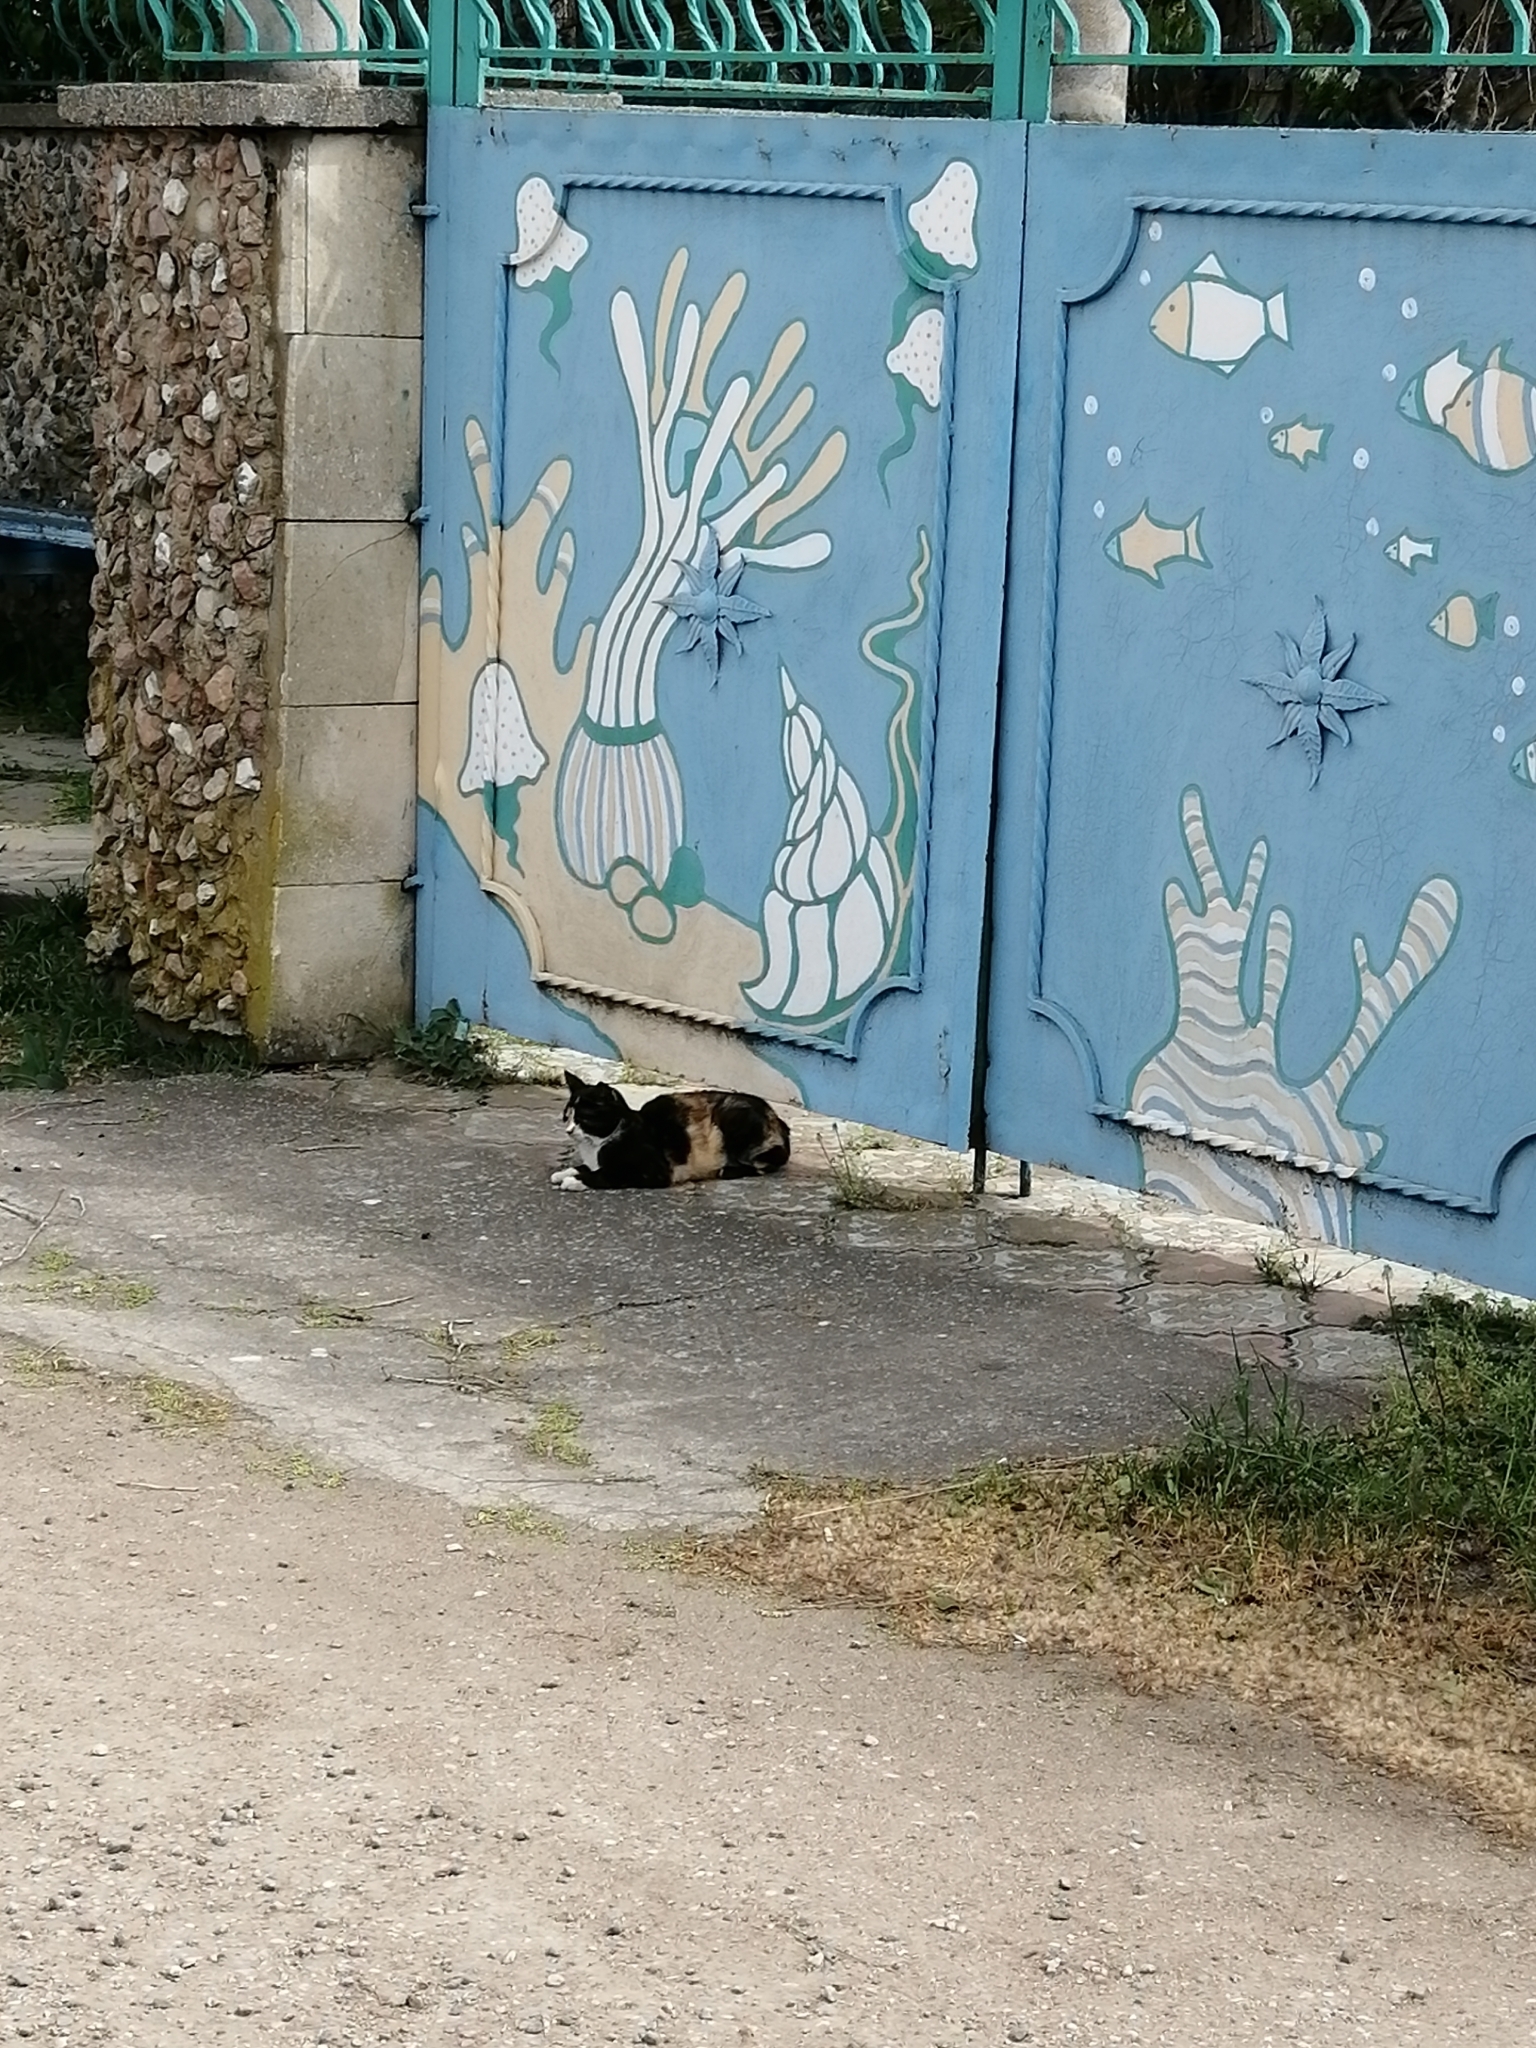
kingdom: Animalia
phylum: Chordata
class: Mammalia
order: Carnivora
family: Felidae
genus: Felis
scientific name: Felis catus
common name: Domestic cat
